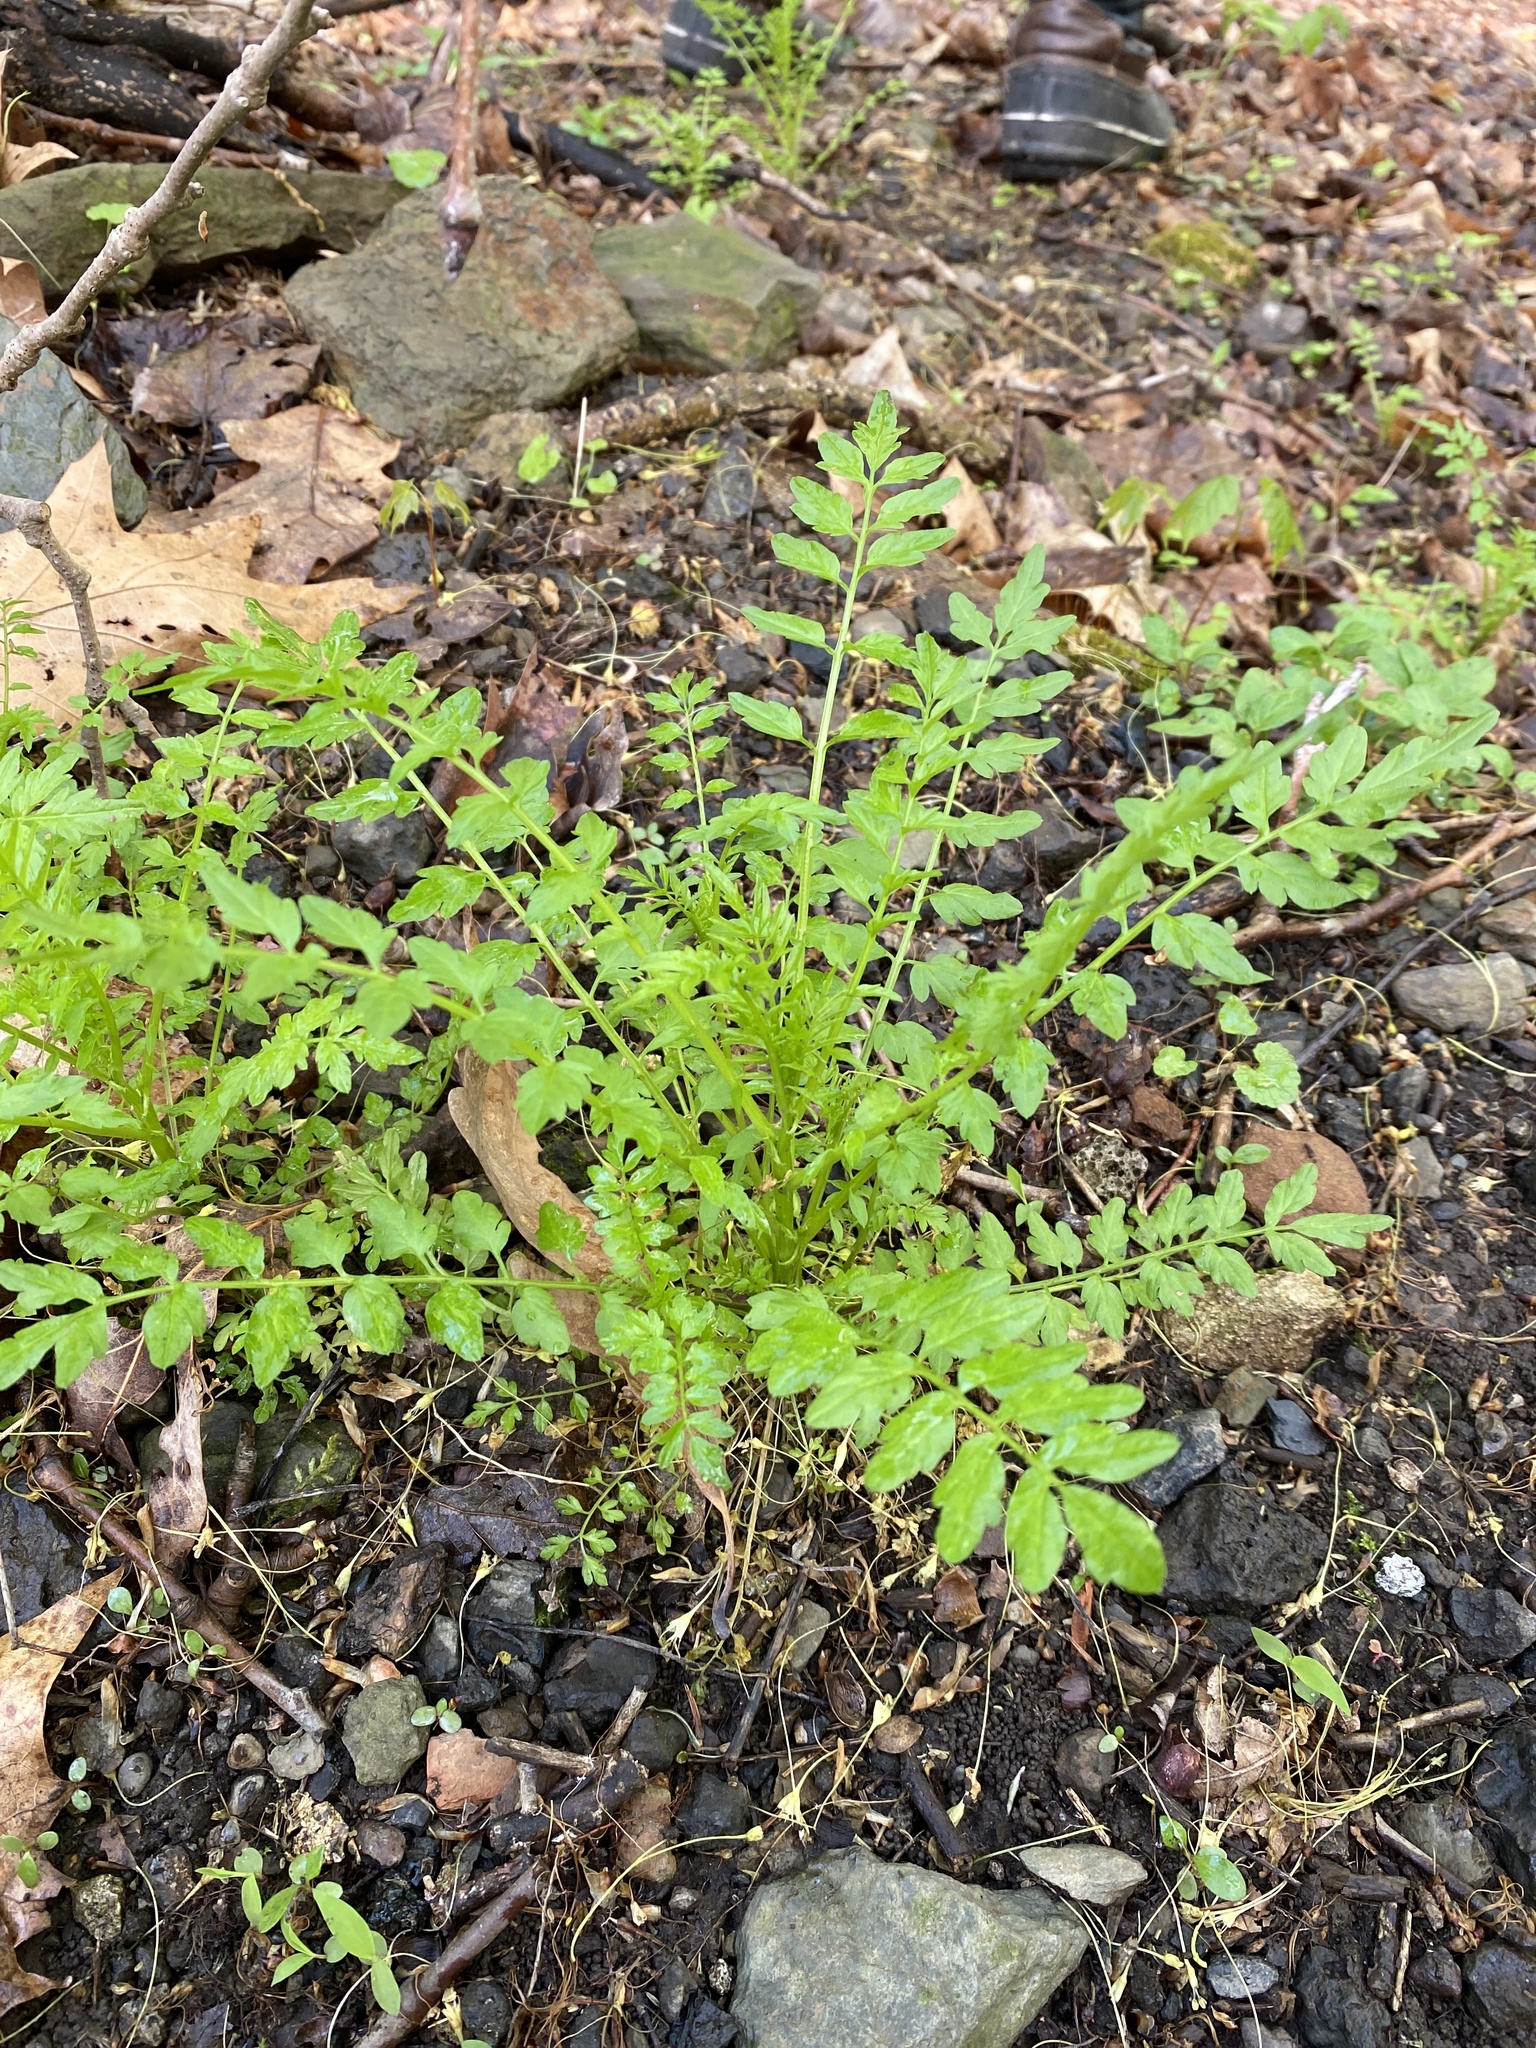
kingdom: Plantae
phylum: Tracheophyta
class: Magnoliopsida
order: Brassicales
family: Brassicaceae
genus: Cardamine
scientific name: Cardamine impatiens
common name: Narrow-leaved bitter-cress
